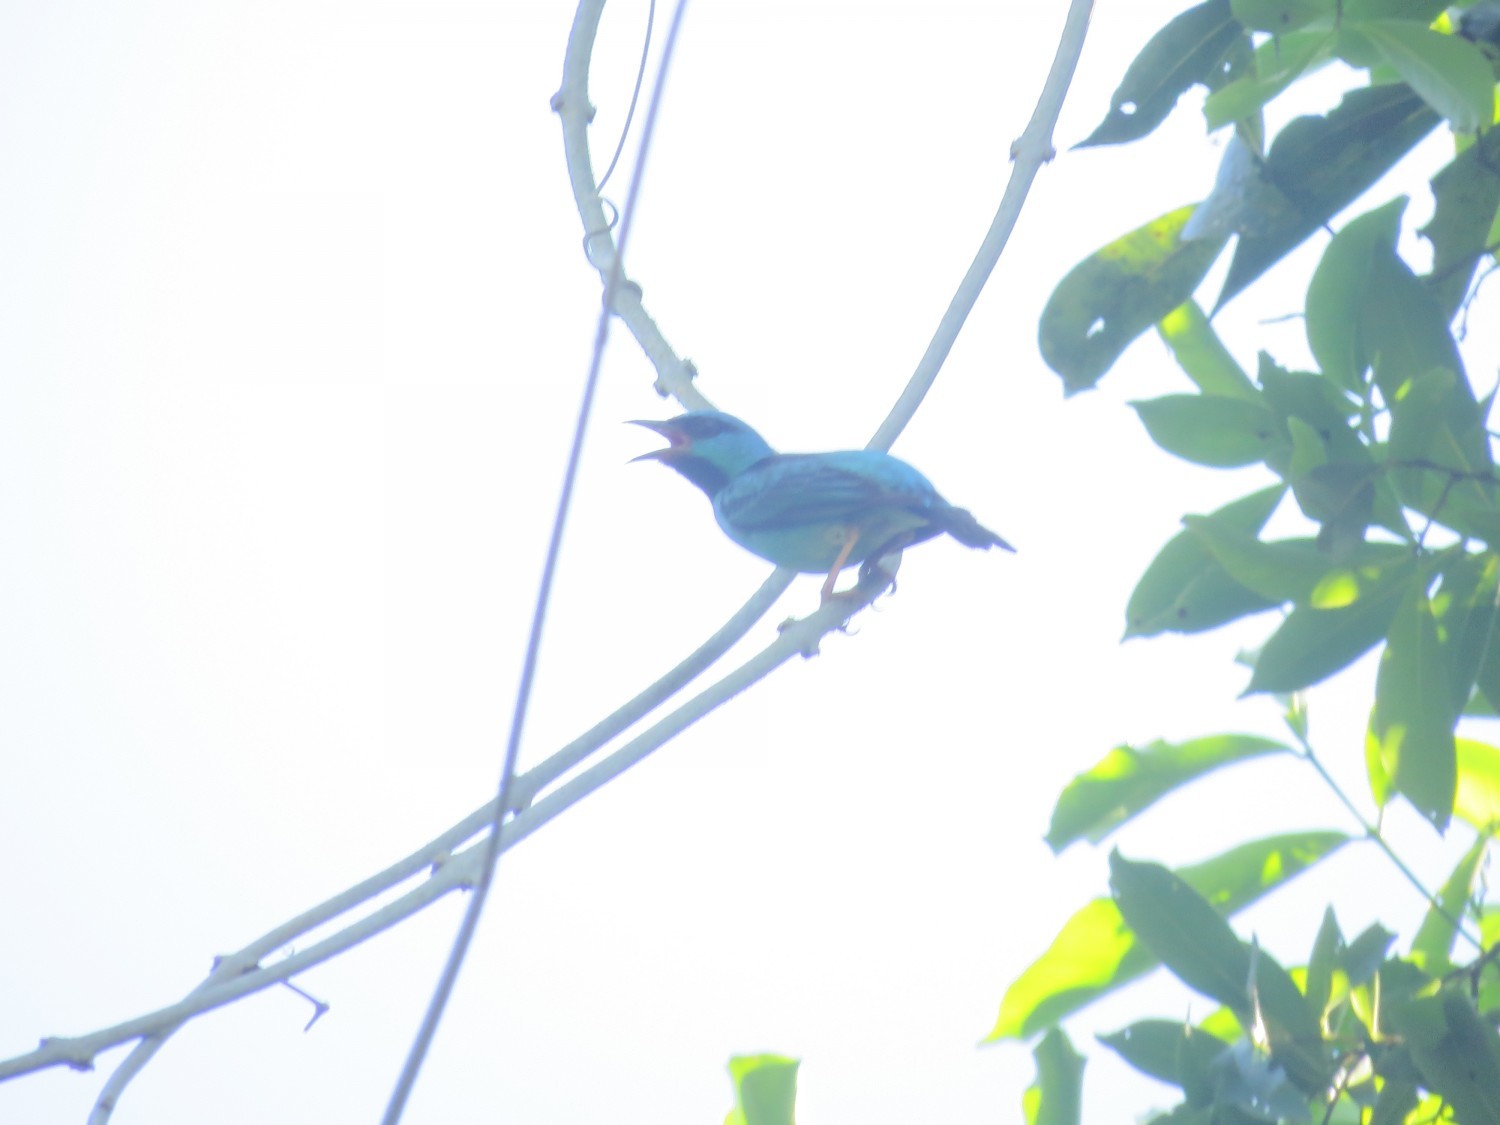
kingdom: Animalia
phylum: Chordata
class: Aves
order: Passeriformes
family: Thraupidae
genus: Dacnis
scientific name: Dacnis cayana
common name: Blue dacnis
